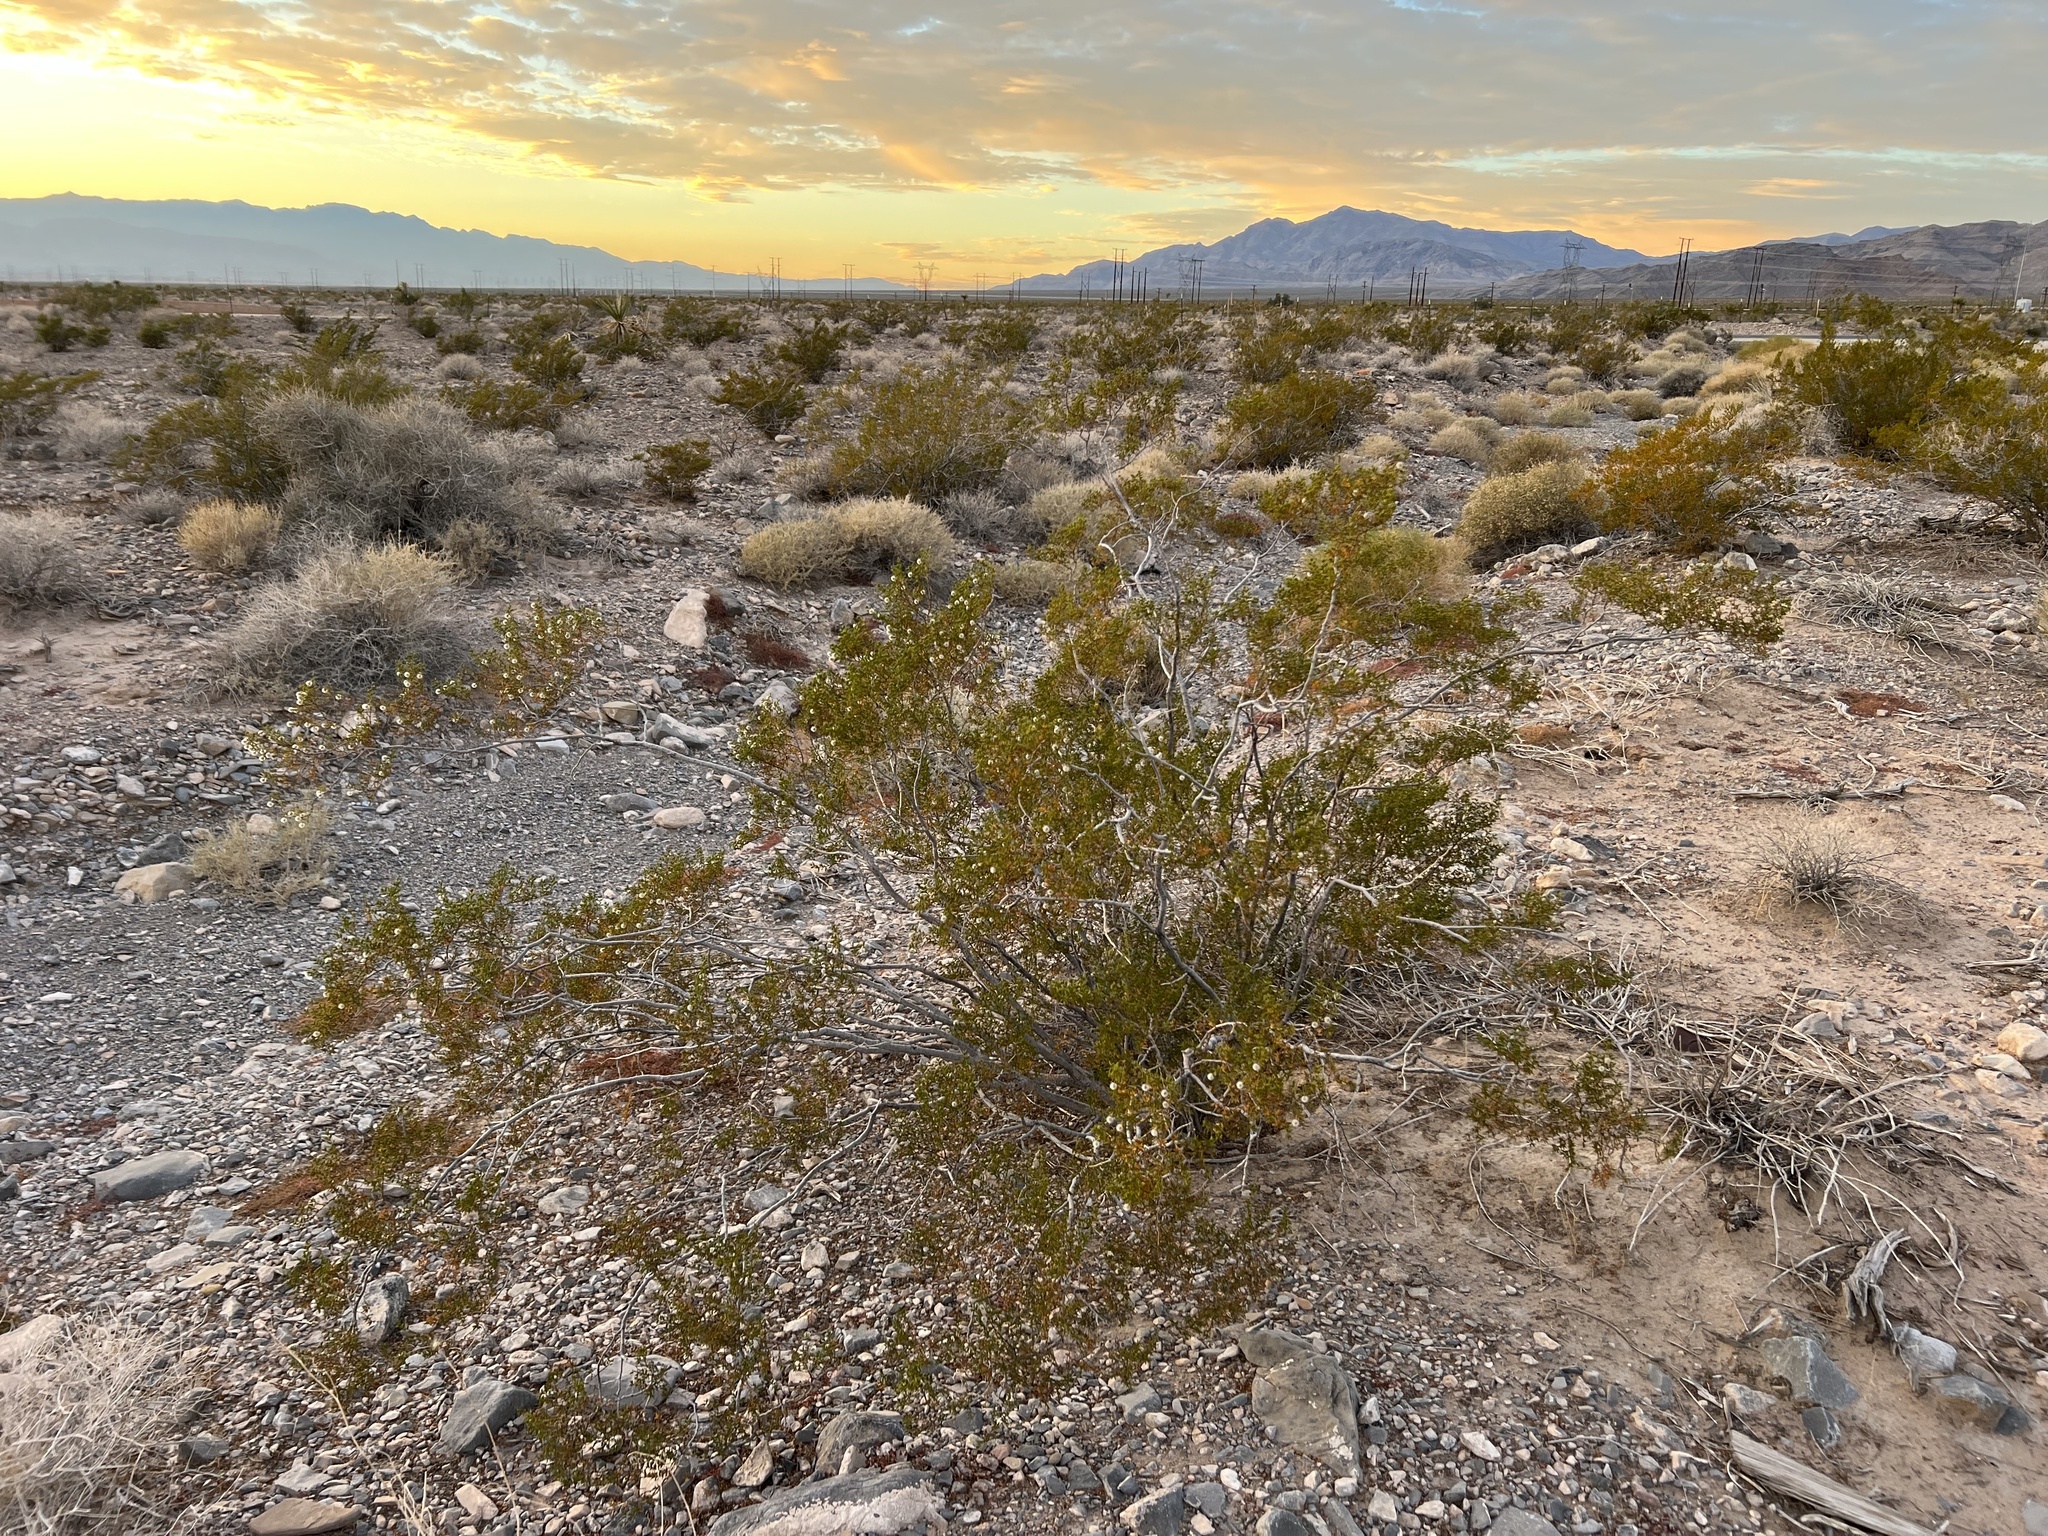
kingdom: Plantae
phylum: Tracheophyta
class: Magnoliopsida
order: Zygophyllales
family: Zygophyllaceae
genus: Larrea
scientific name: Larrea tridentata
